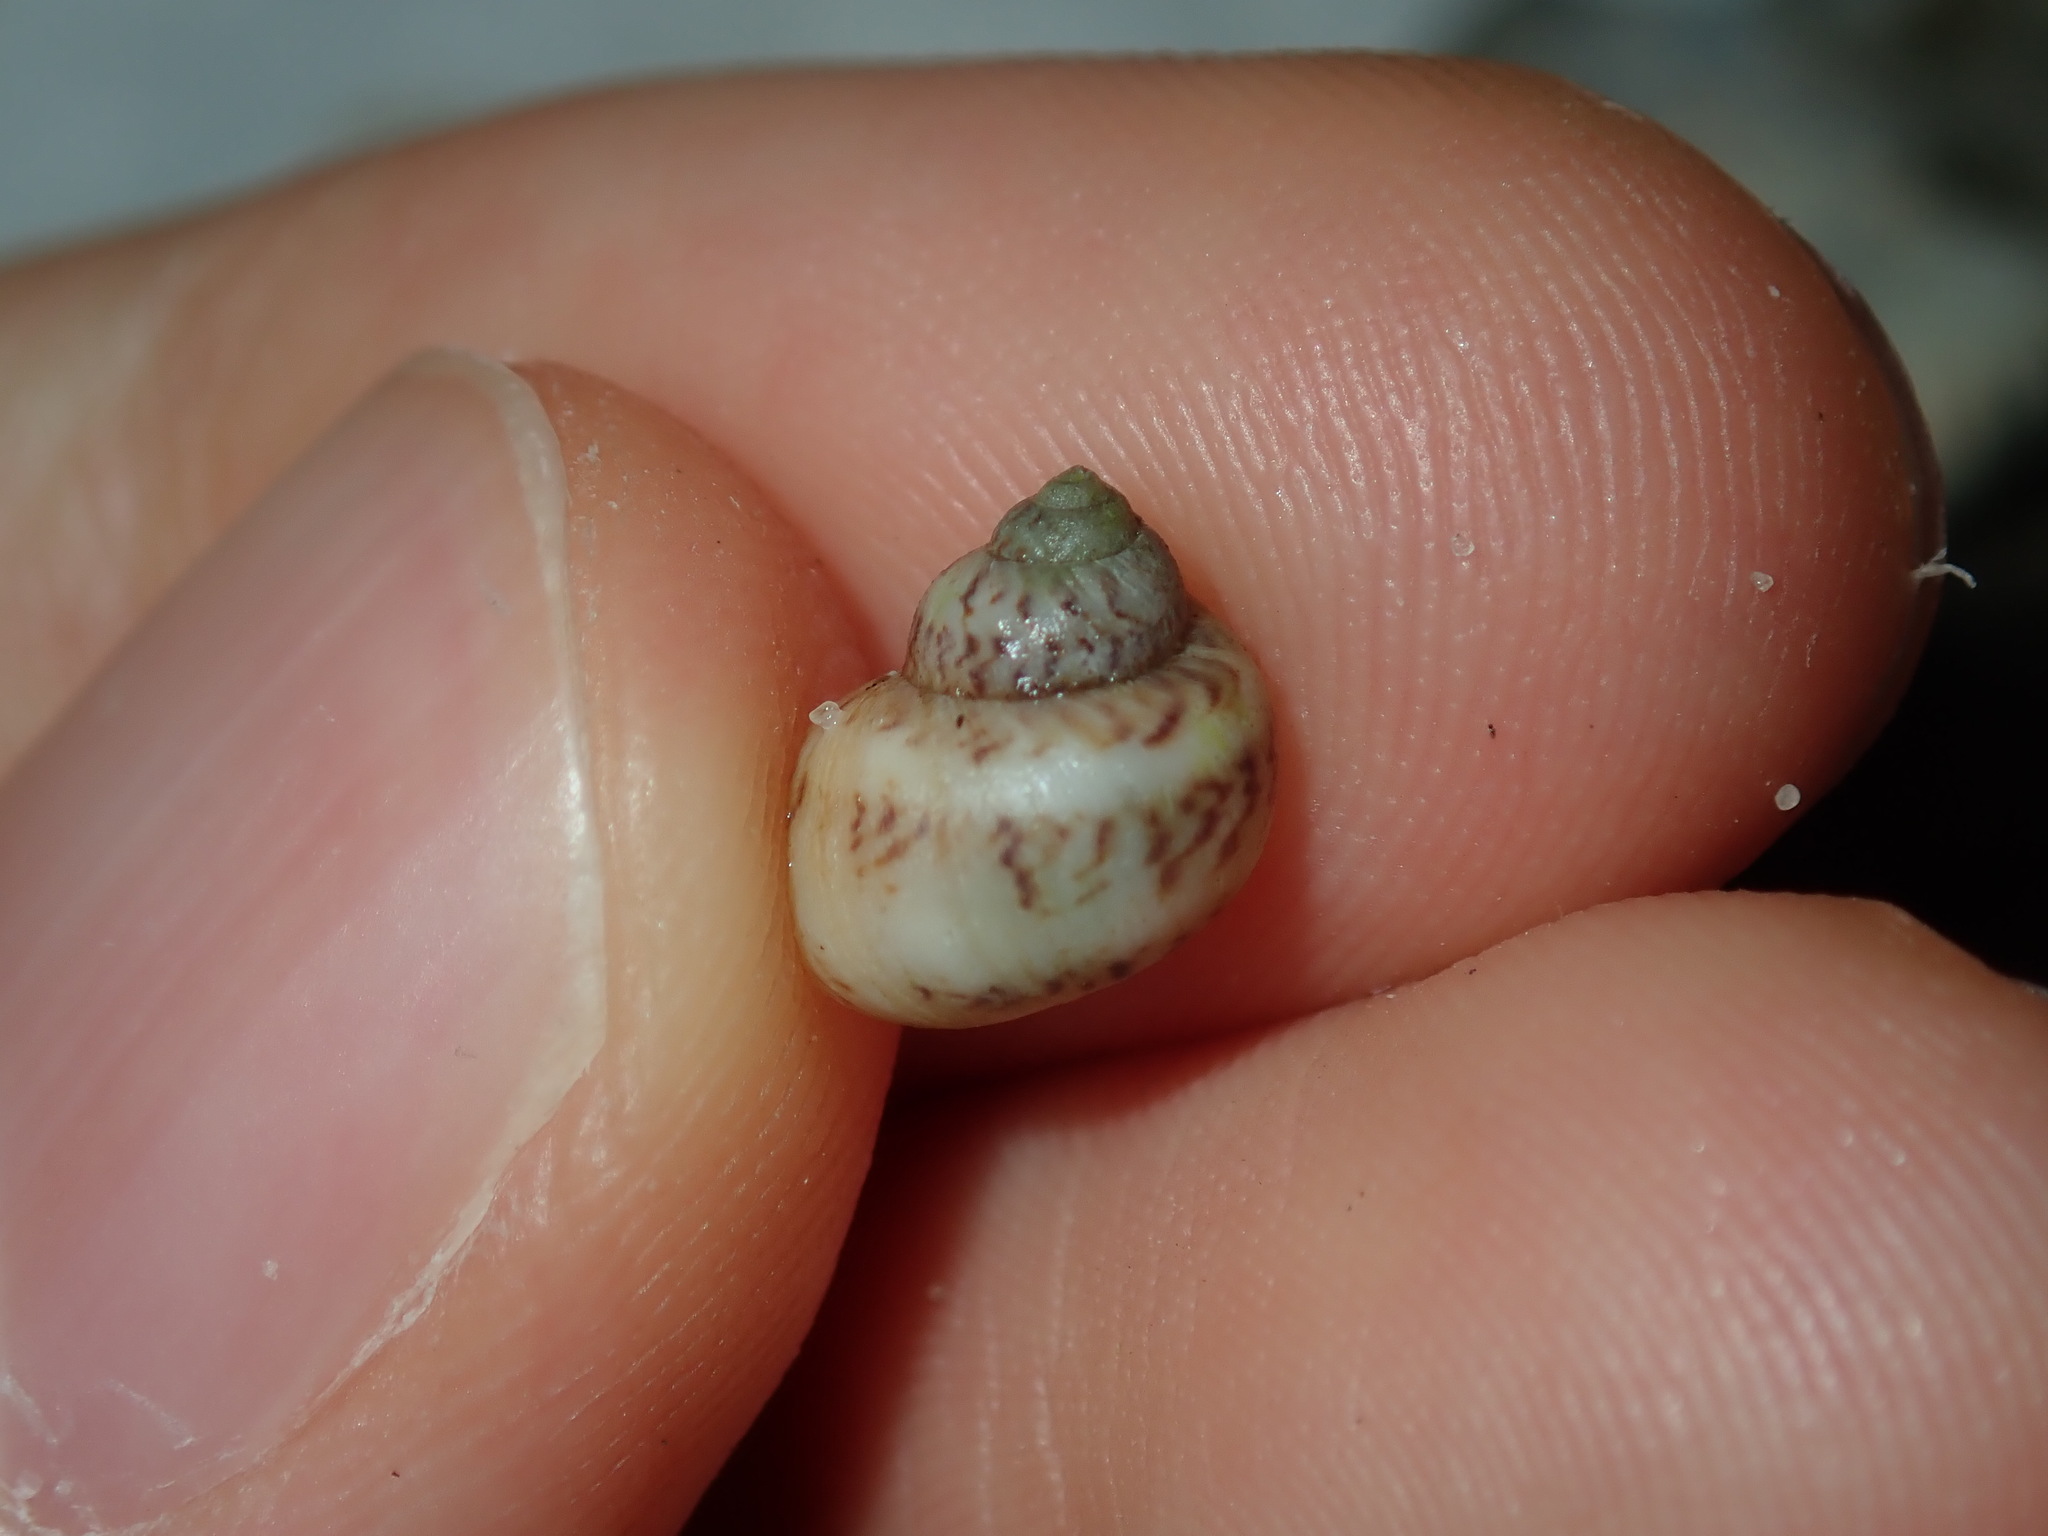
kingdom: Animalia
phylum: Mollusca
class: Gastropoda
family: Amphibolidae
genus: Phallomedusa
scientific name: Phallomedusa solida
